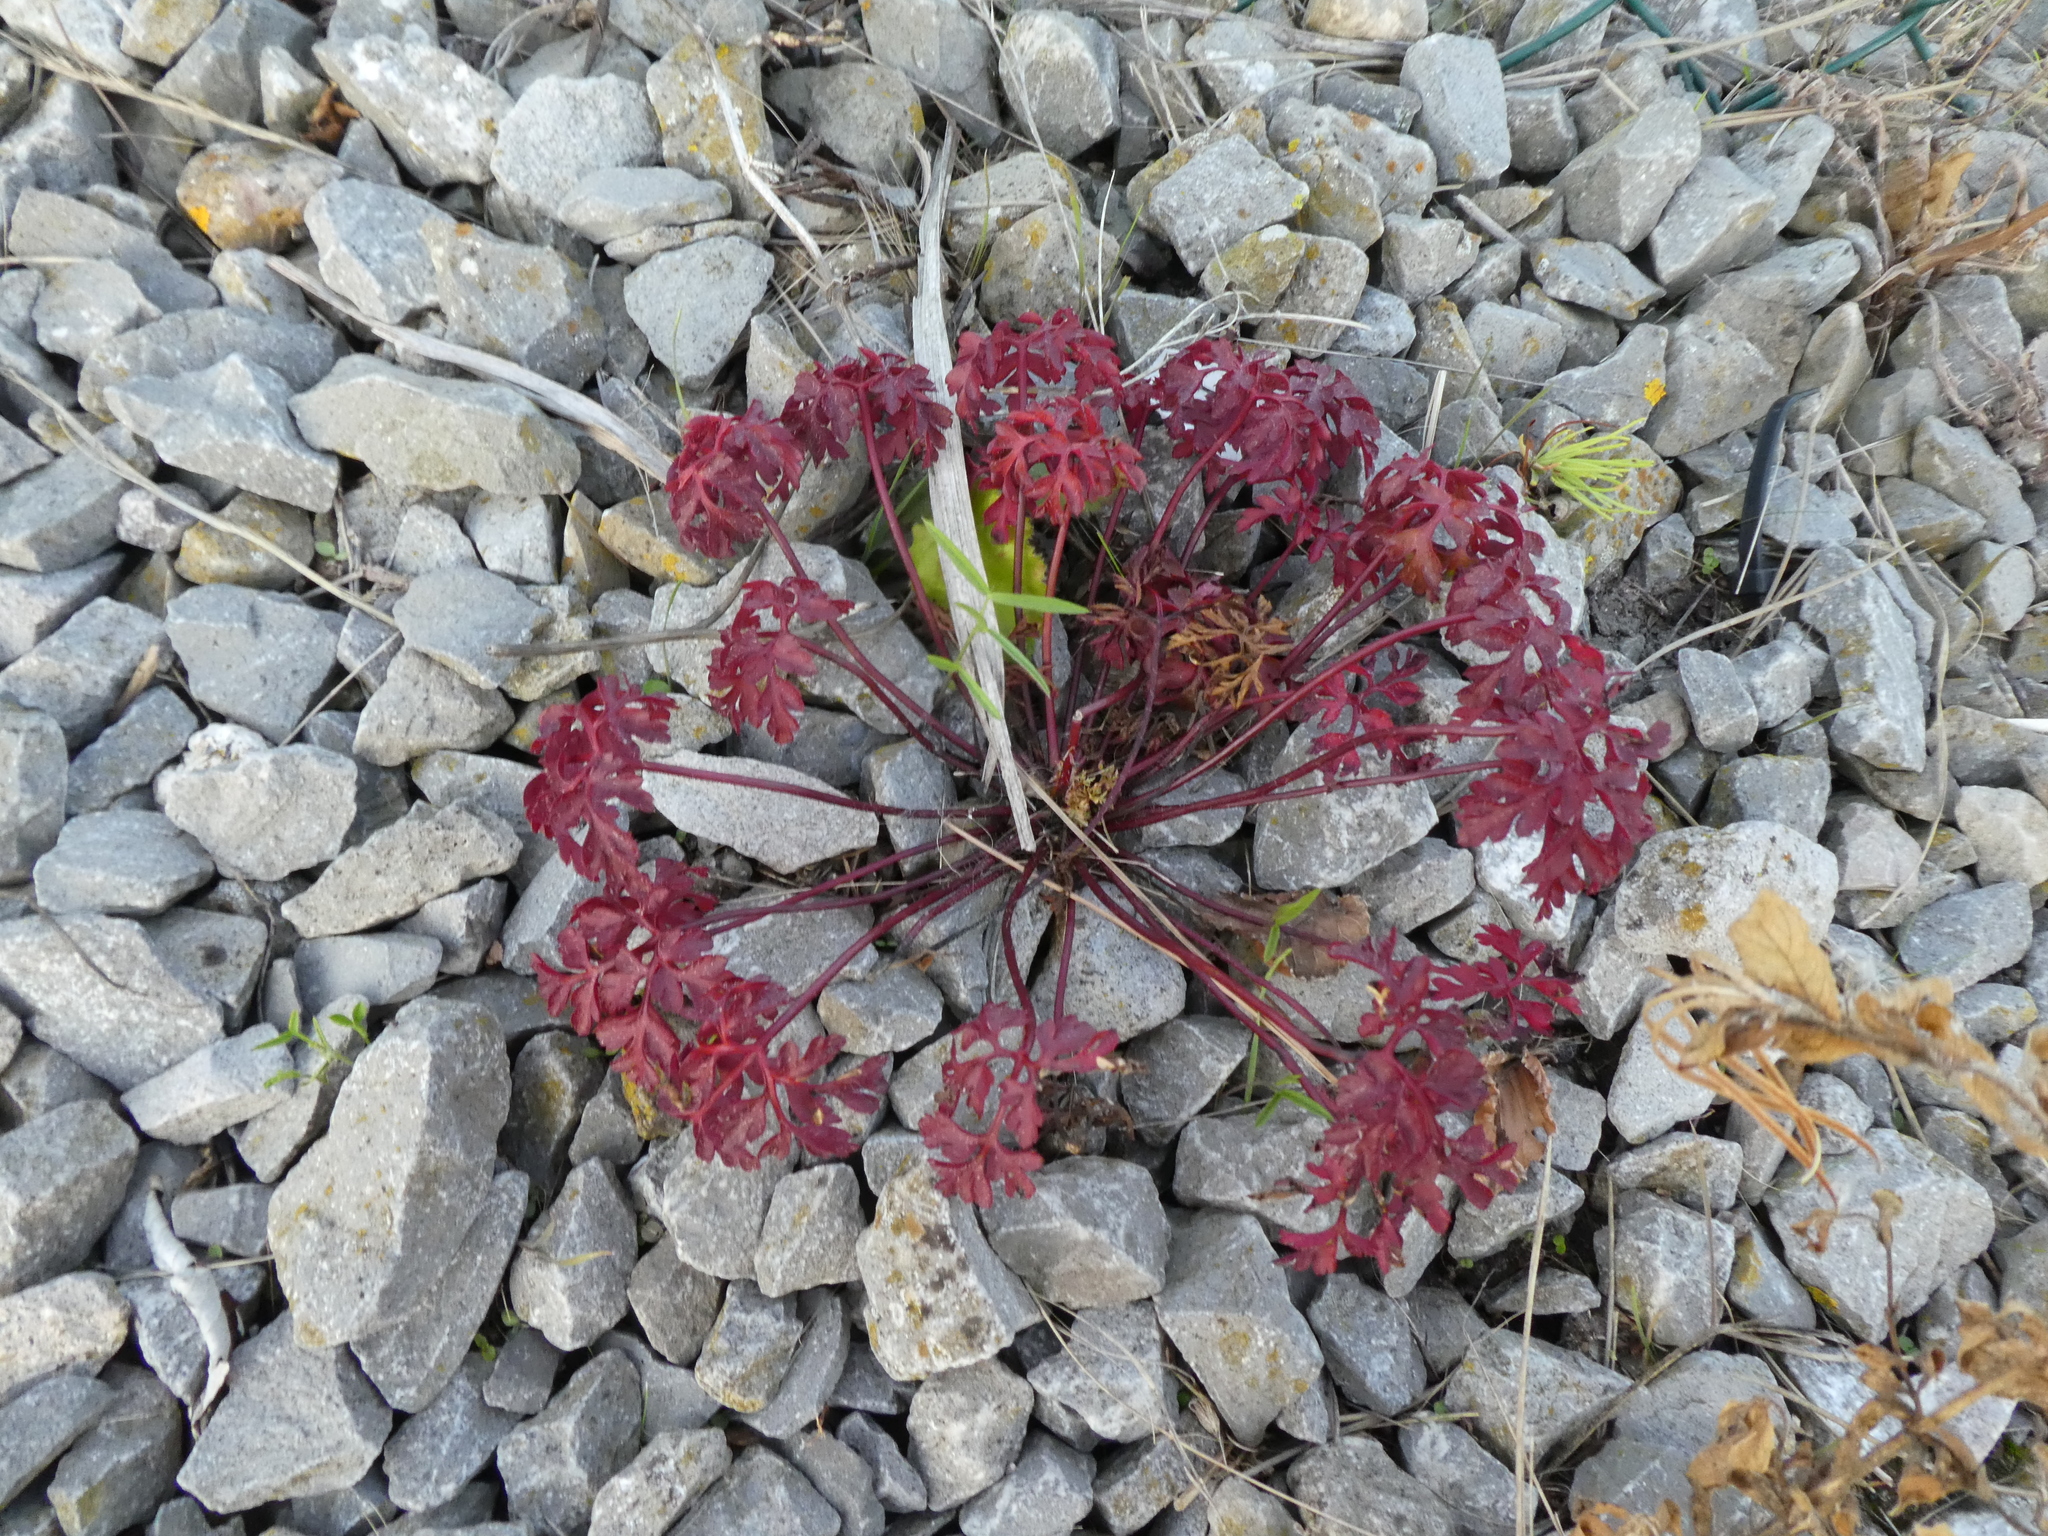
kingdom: Plantae
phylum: Tracheophyta
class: Magnoliopsida
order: Geraniales
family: Geraniaceae
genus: Geranium
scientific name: Geranium robertianum
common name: Herb-robert
